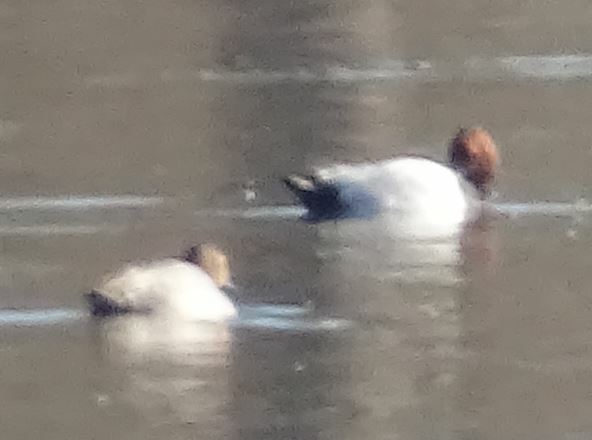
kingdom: Animalia
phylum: Chordata
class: Aves
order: Anseriformes
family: Anatidae
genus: Aythya
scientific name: Aythya ferina
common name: Common pochard
